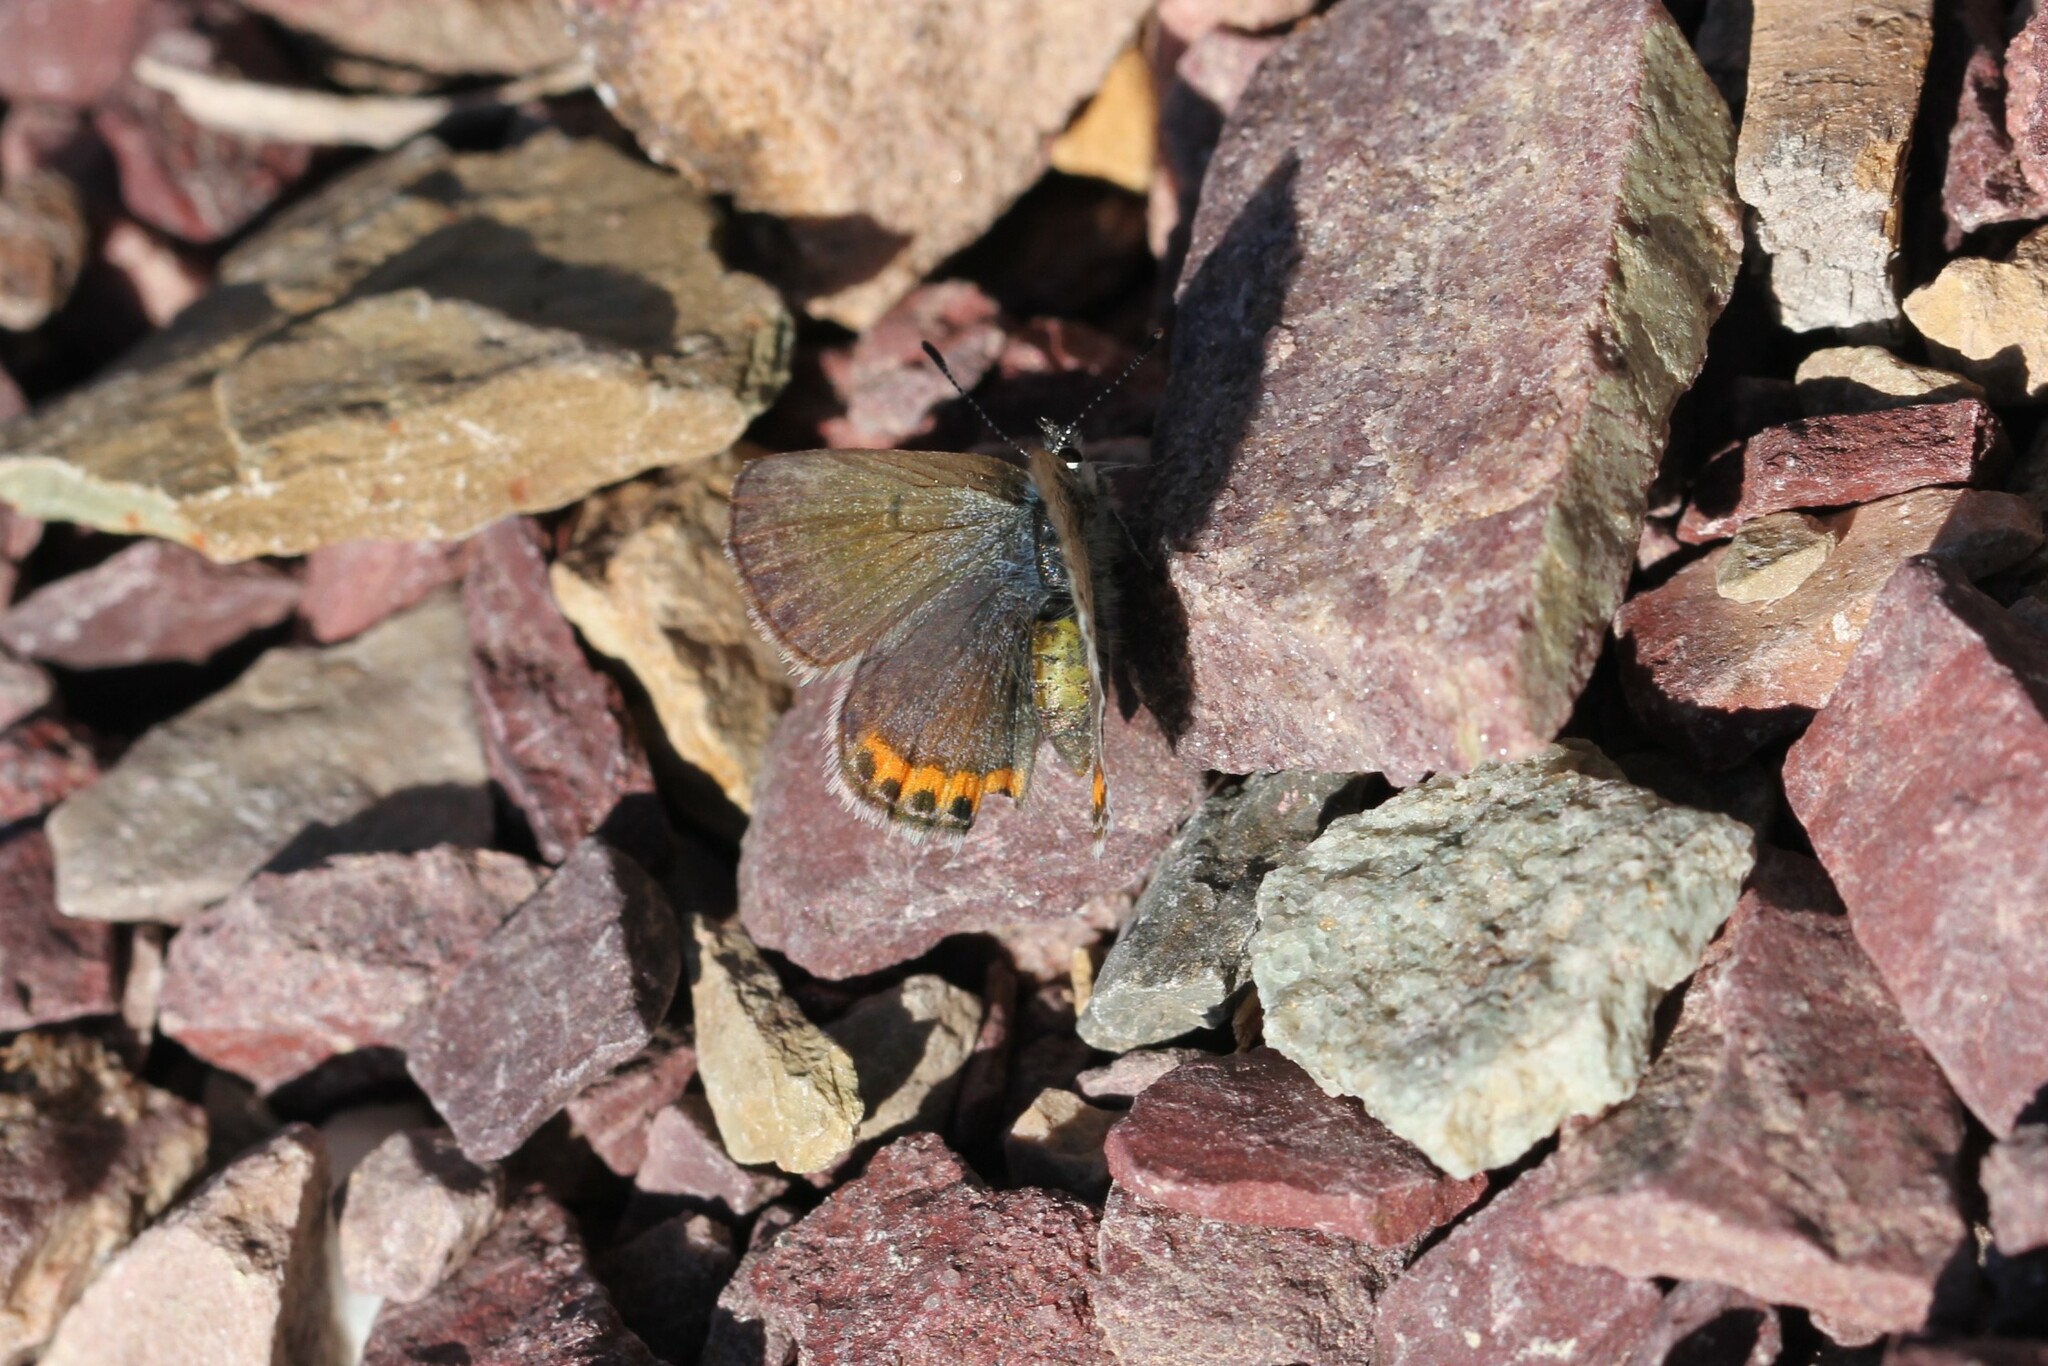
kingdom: Animalia
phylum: Arthropoda
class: Insecta
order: Lepidoptera
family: Lycaenidae
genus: Icaricia
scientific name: Icaricia lupini
